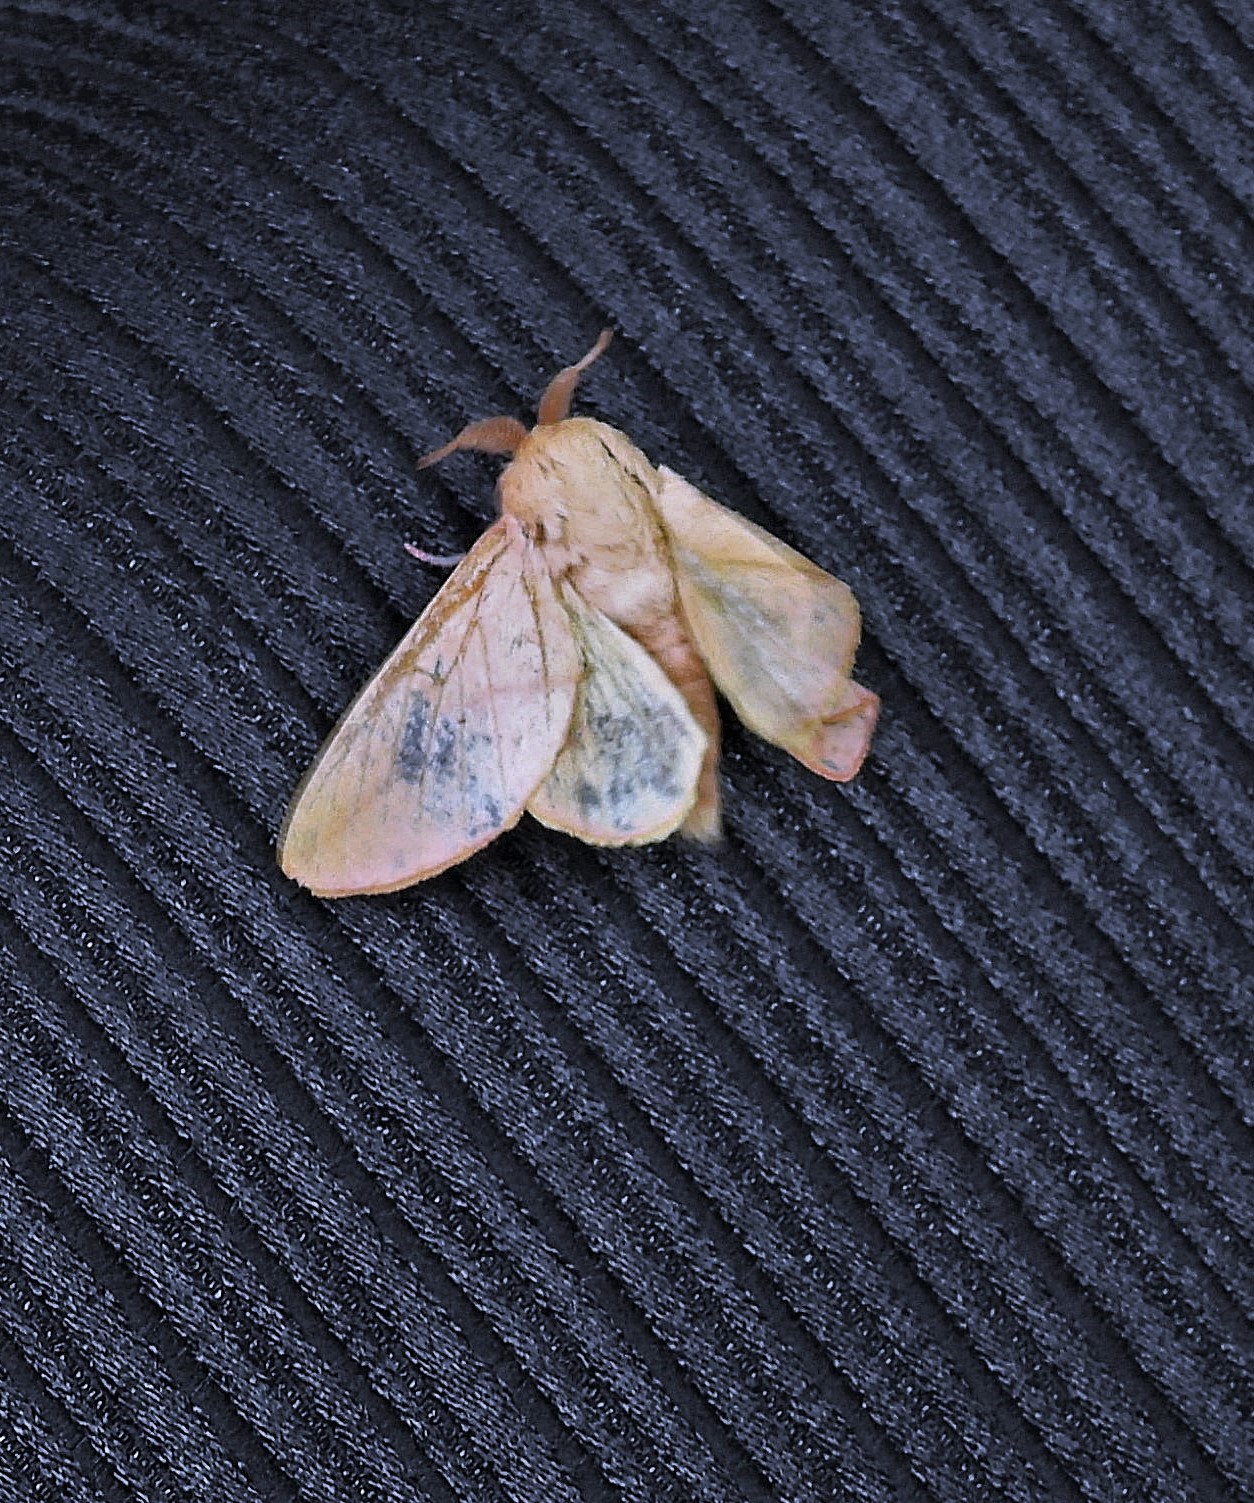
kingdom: Animalia
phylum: Arthropoda
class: Insecta
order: Lepidoptera
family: Saturniidae
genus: Psilopygida
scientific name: Psilopygida crispula
